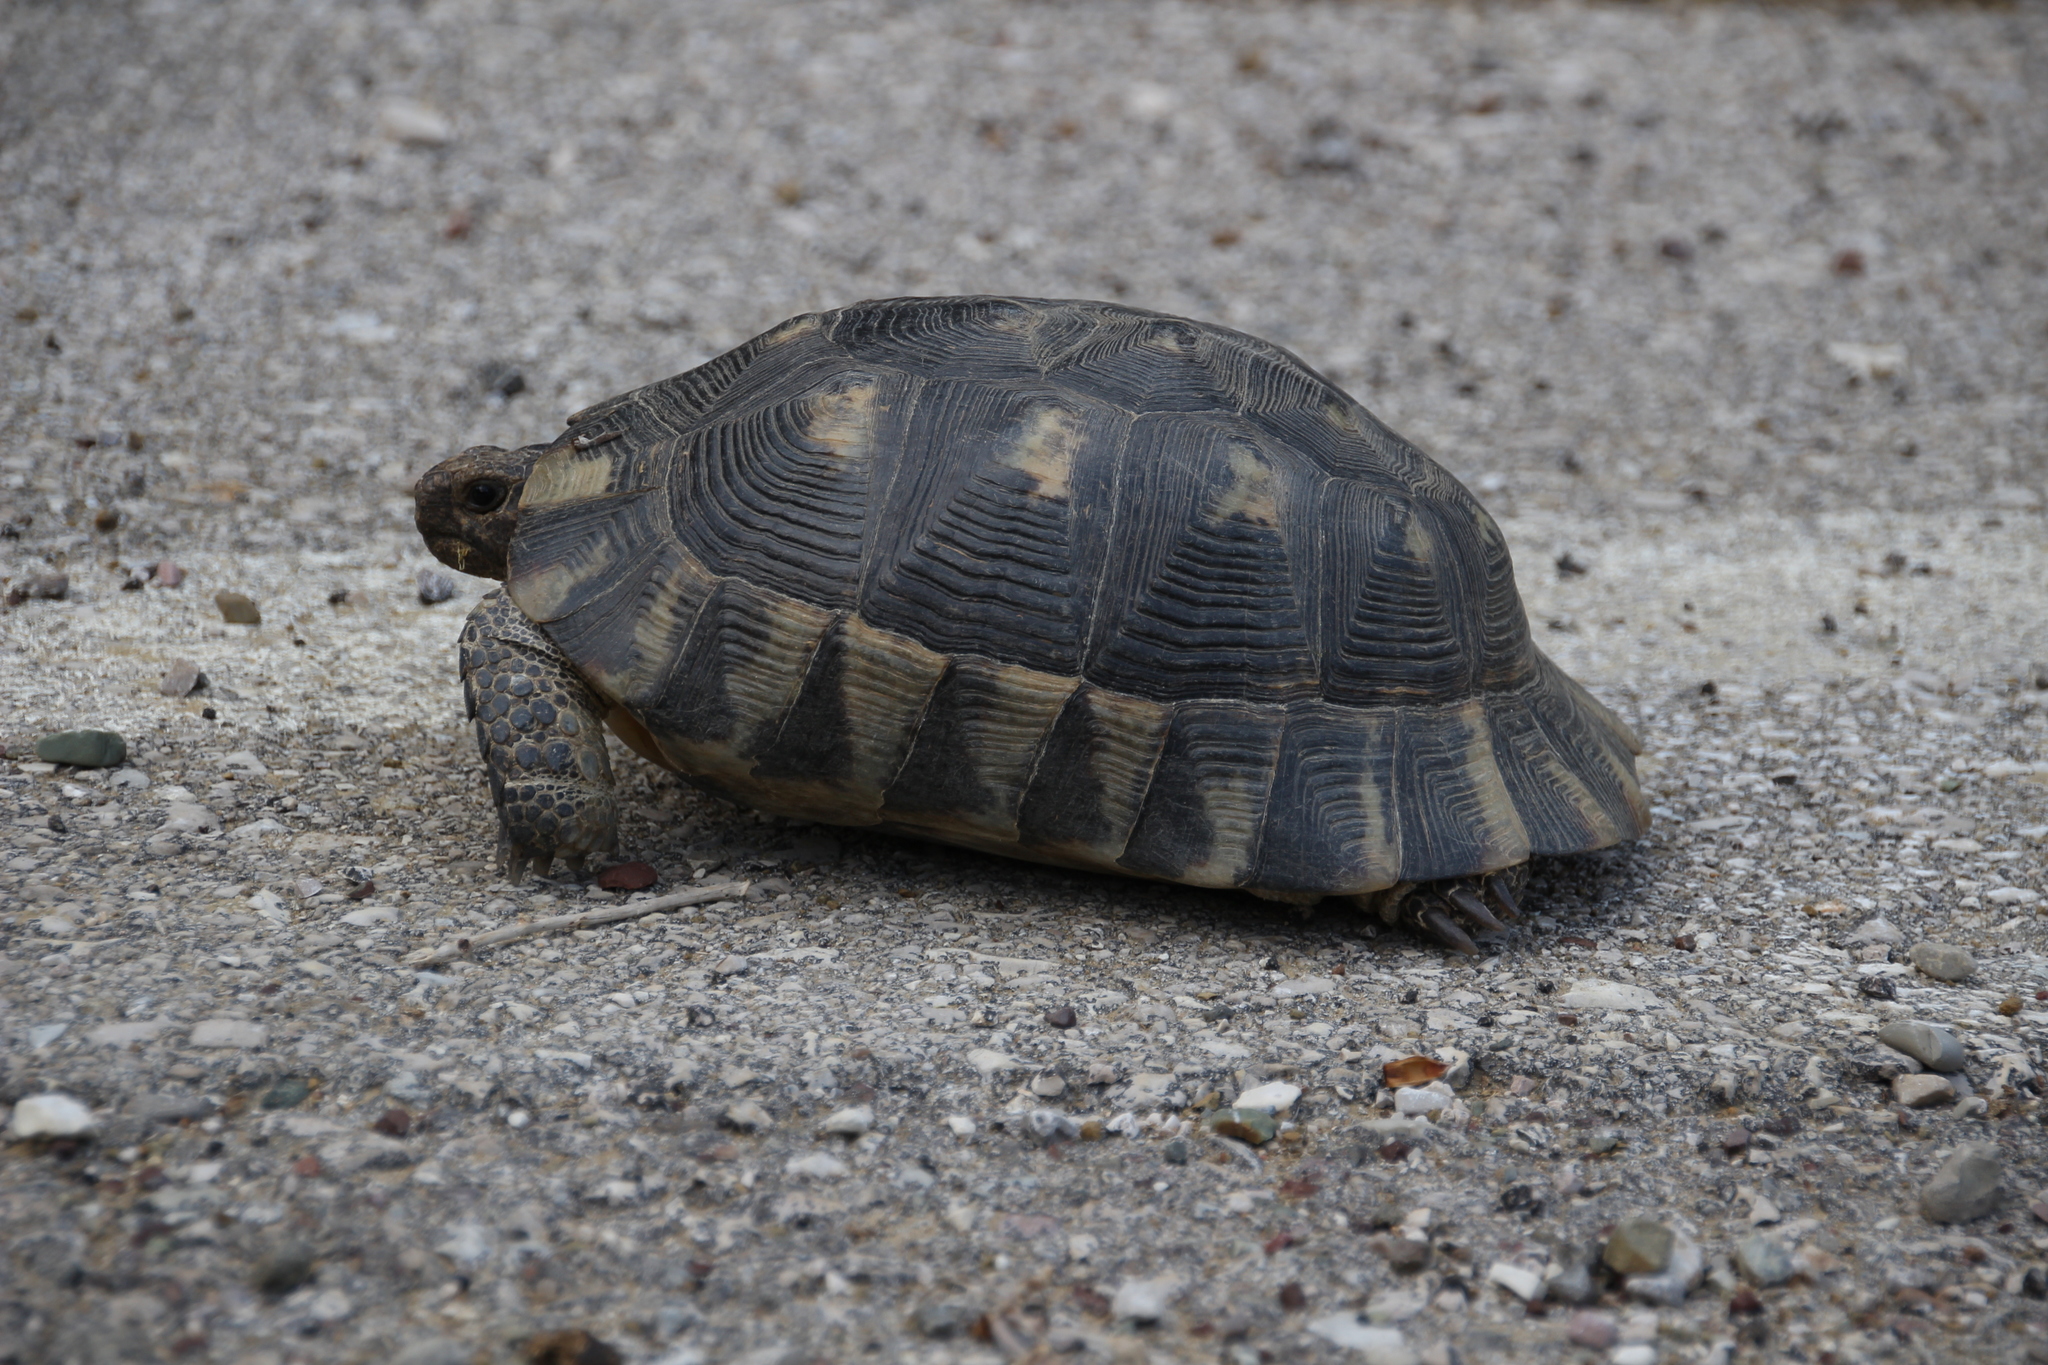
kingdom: Animalia
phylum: Chordata
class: Testudines
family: Testudinidae
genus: Testudo
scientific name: Testudo marginata
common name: Marginated tortoise
